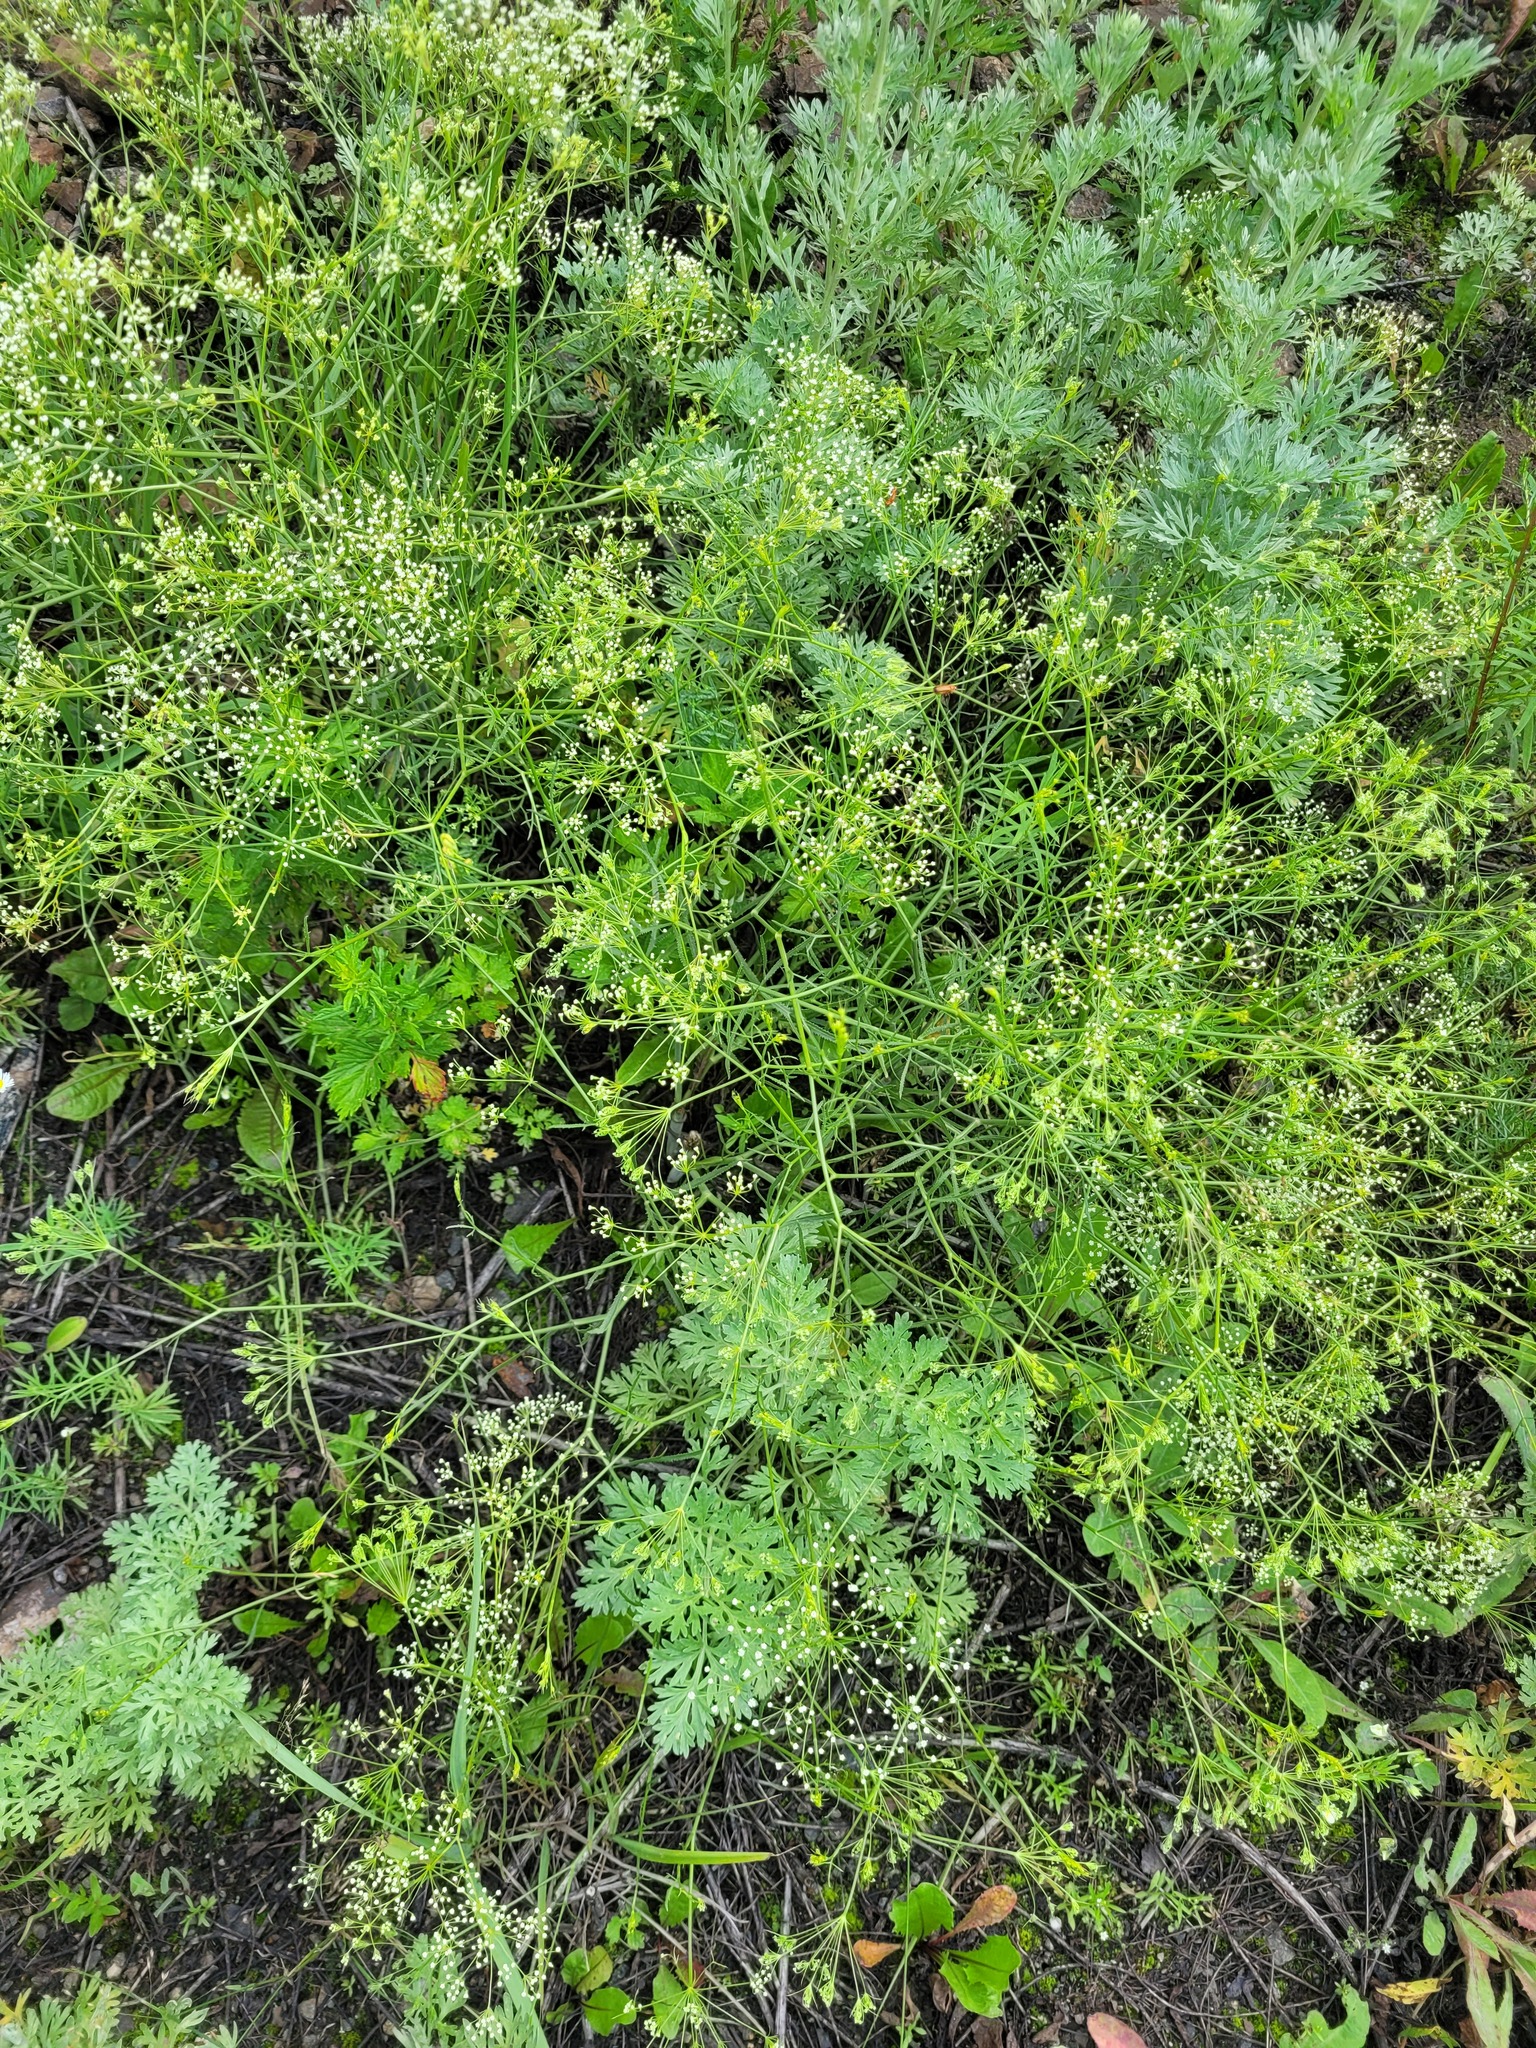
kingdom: Plantae
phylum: Tracheophyta
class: Magnoliopsida
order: Apiales
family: Apiaceae
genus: Falcaria
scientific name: Falcaria vulgaris
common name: Longleaf
